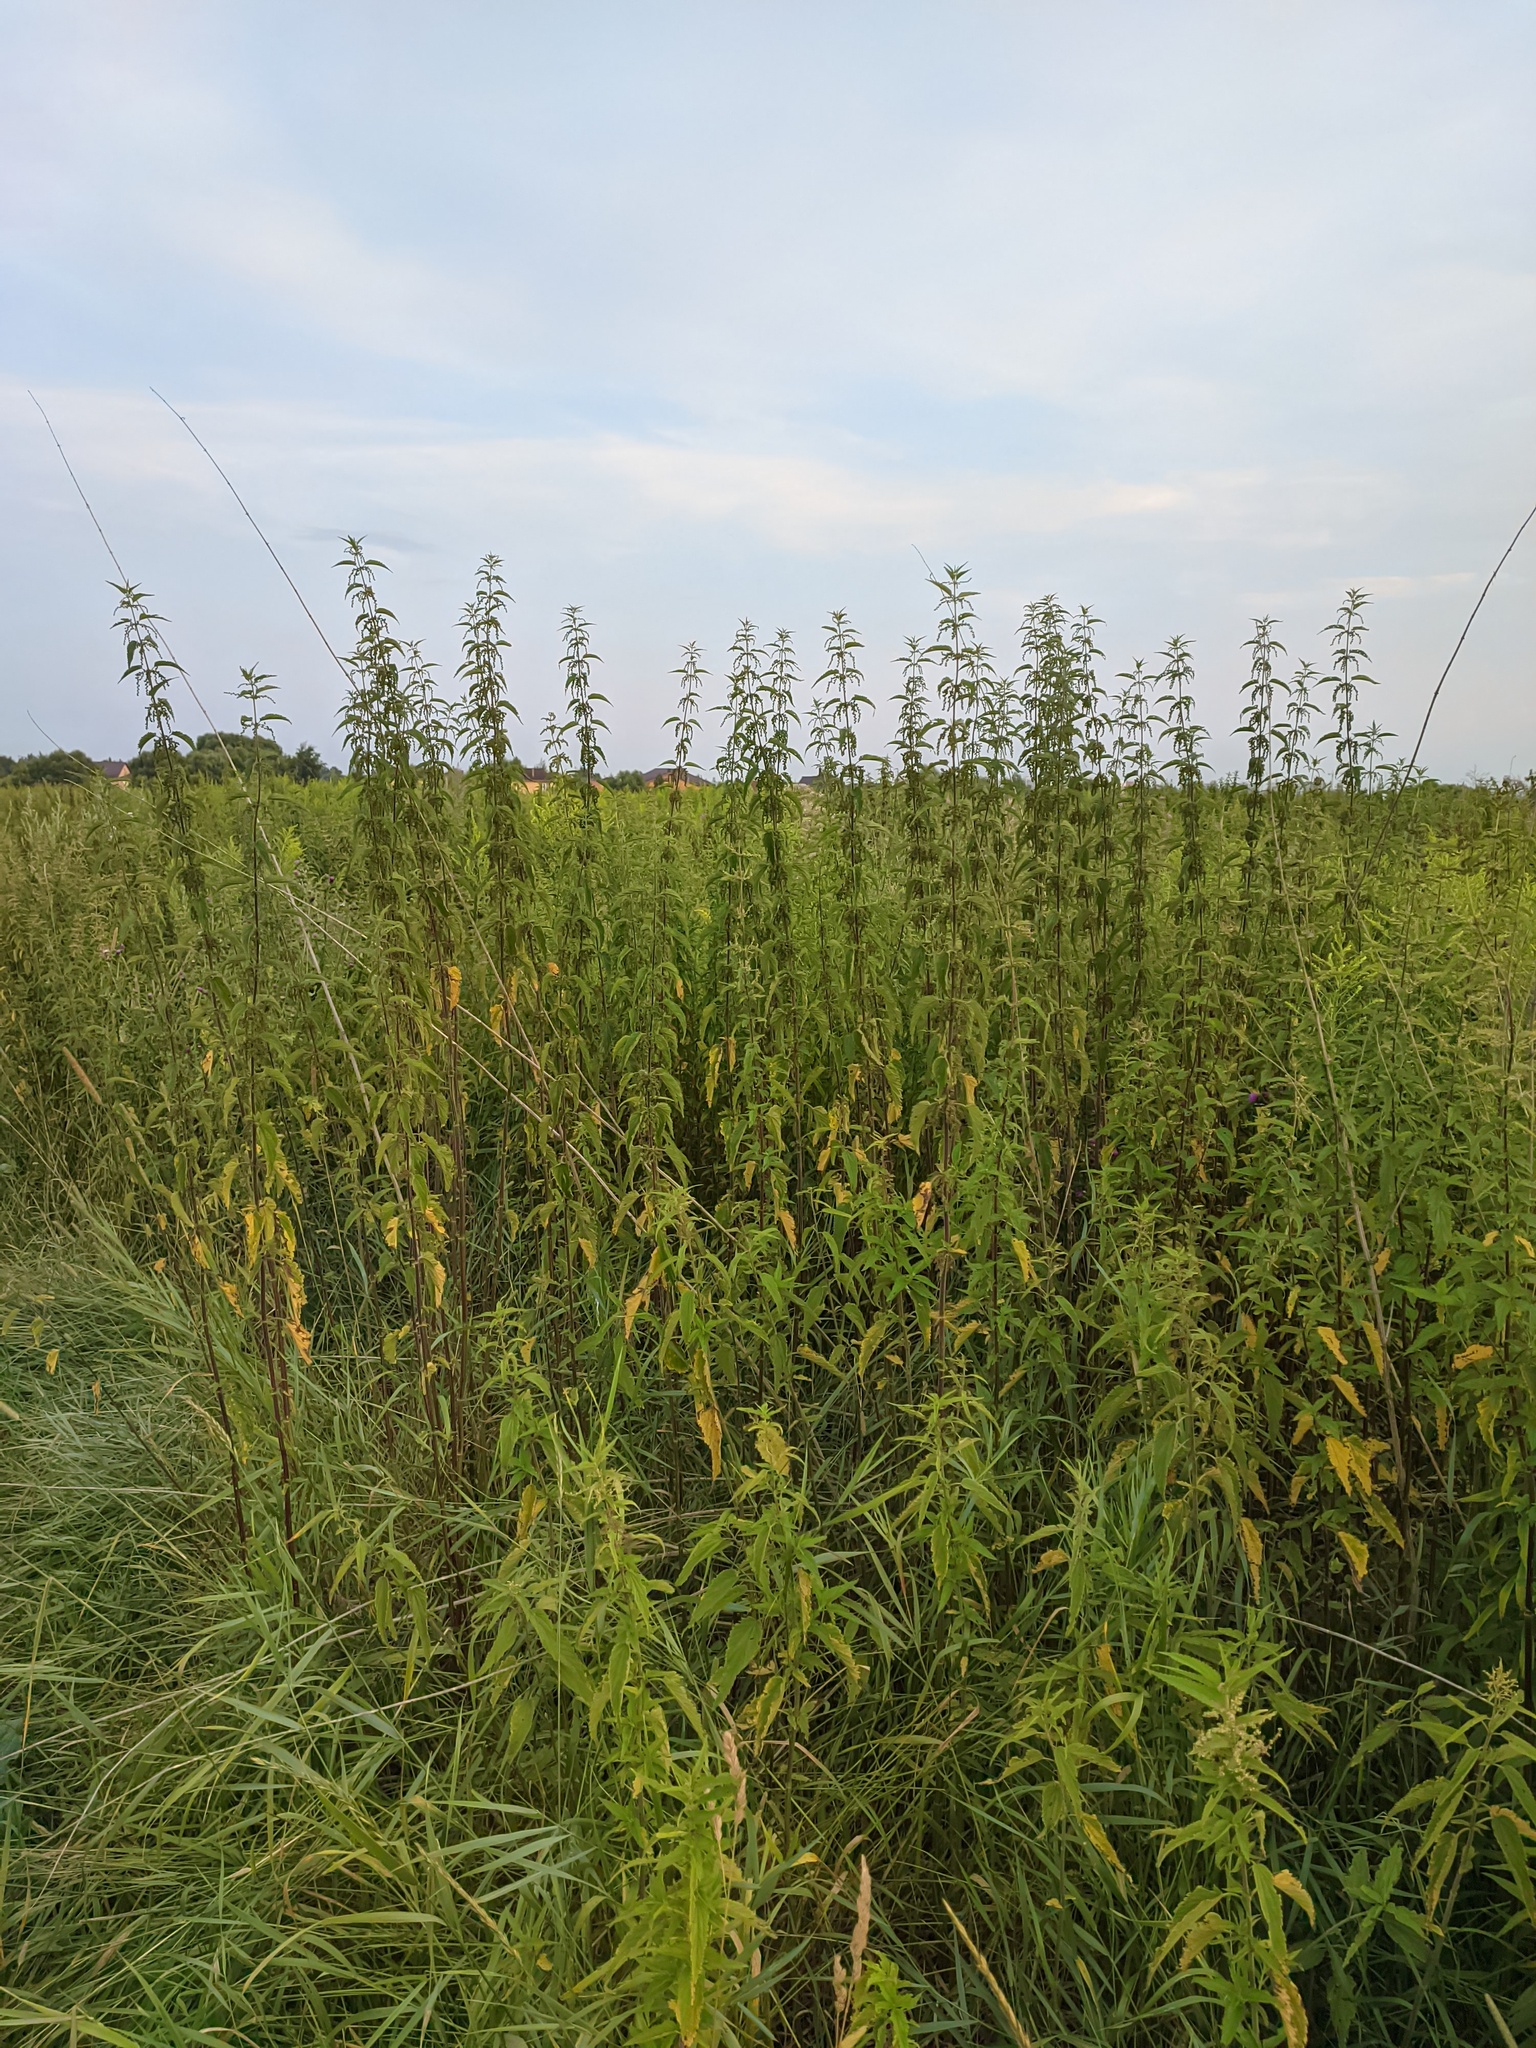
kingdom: Plantae
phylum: Tracheophyta
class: Magnoliopsida
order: Rosales
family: Urticaceae
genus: Urtica
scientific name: Urtica dioica
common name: Common nettle
